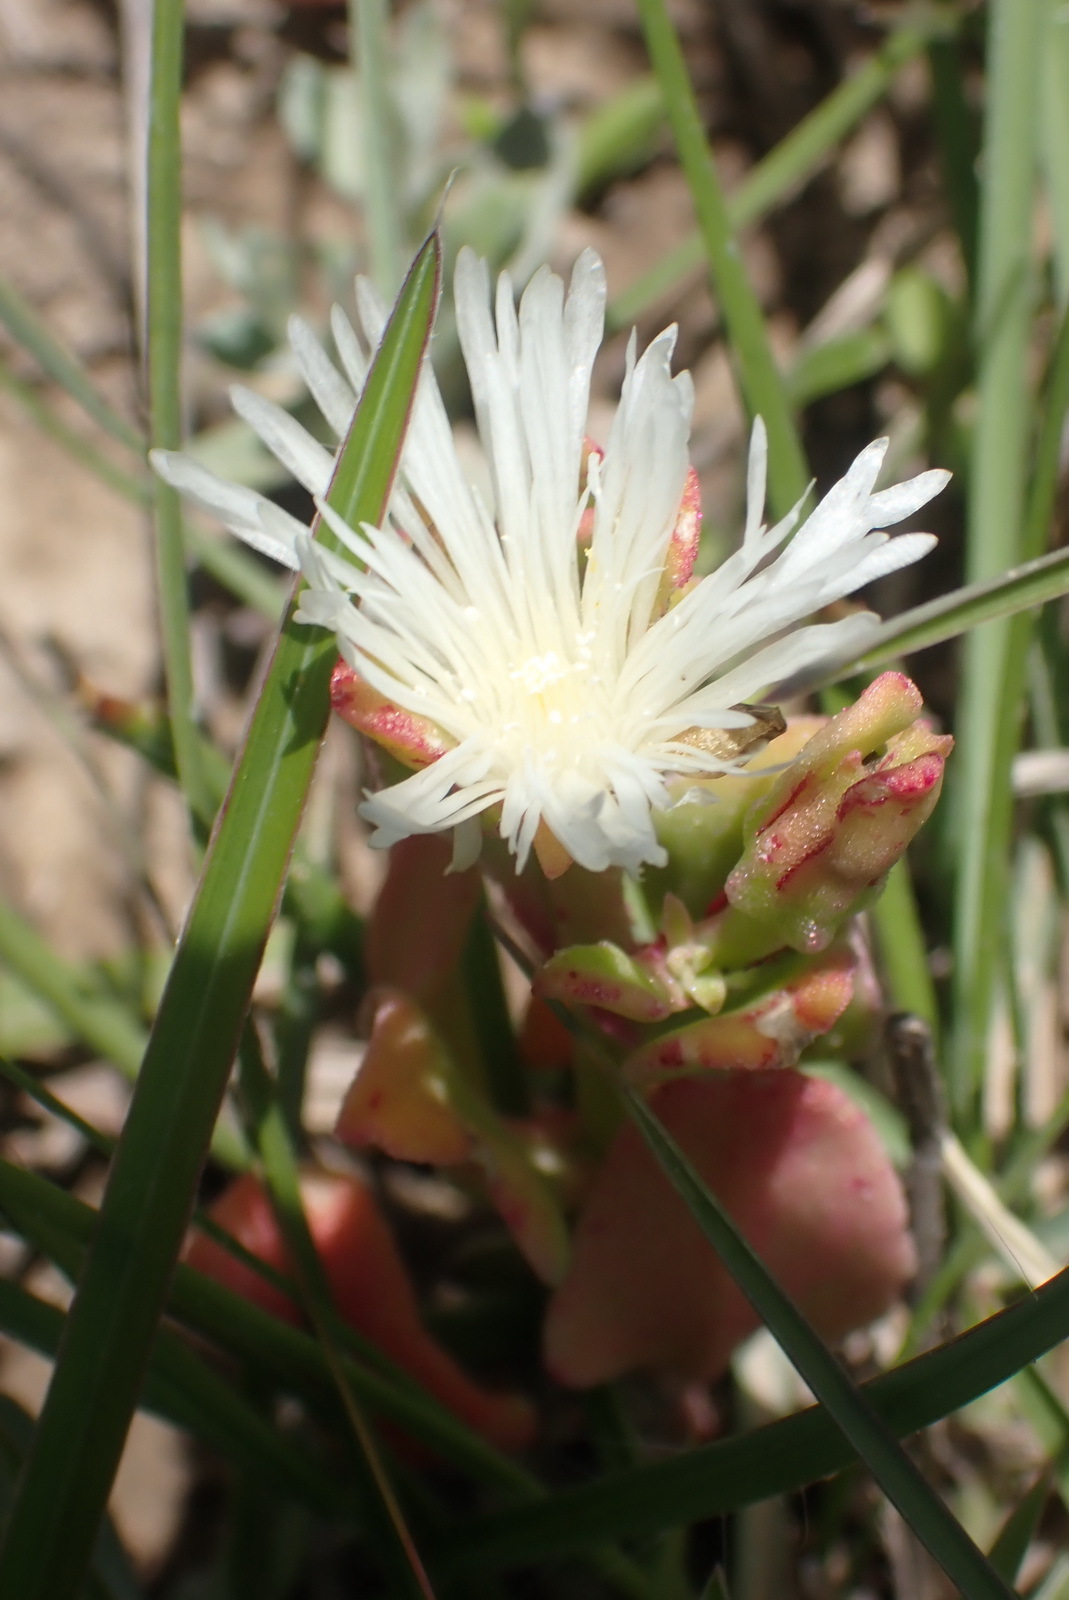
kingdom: Plantae
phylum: Tracheophyta
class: Magnoliopsida
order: Caryophyllales
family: Aizoaceae
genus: Mesembryanthemum
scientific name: Mesembryanthemum aitonis
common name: Angled iceplant
